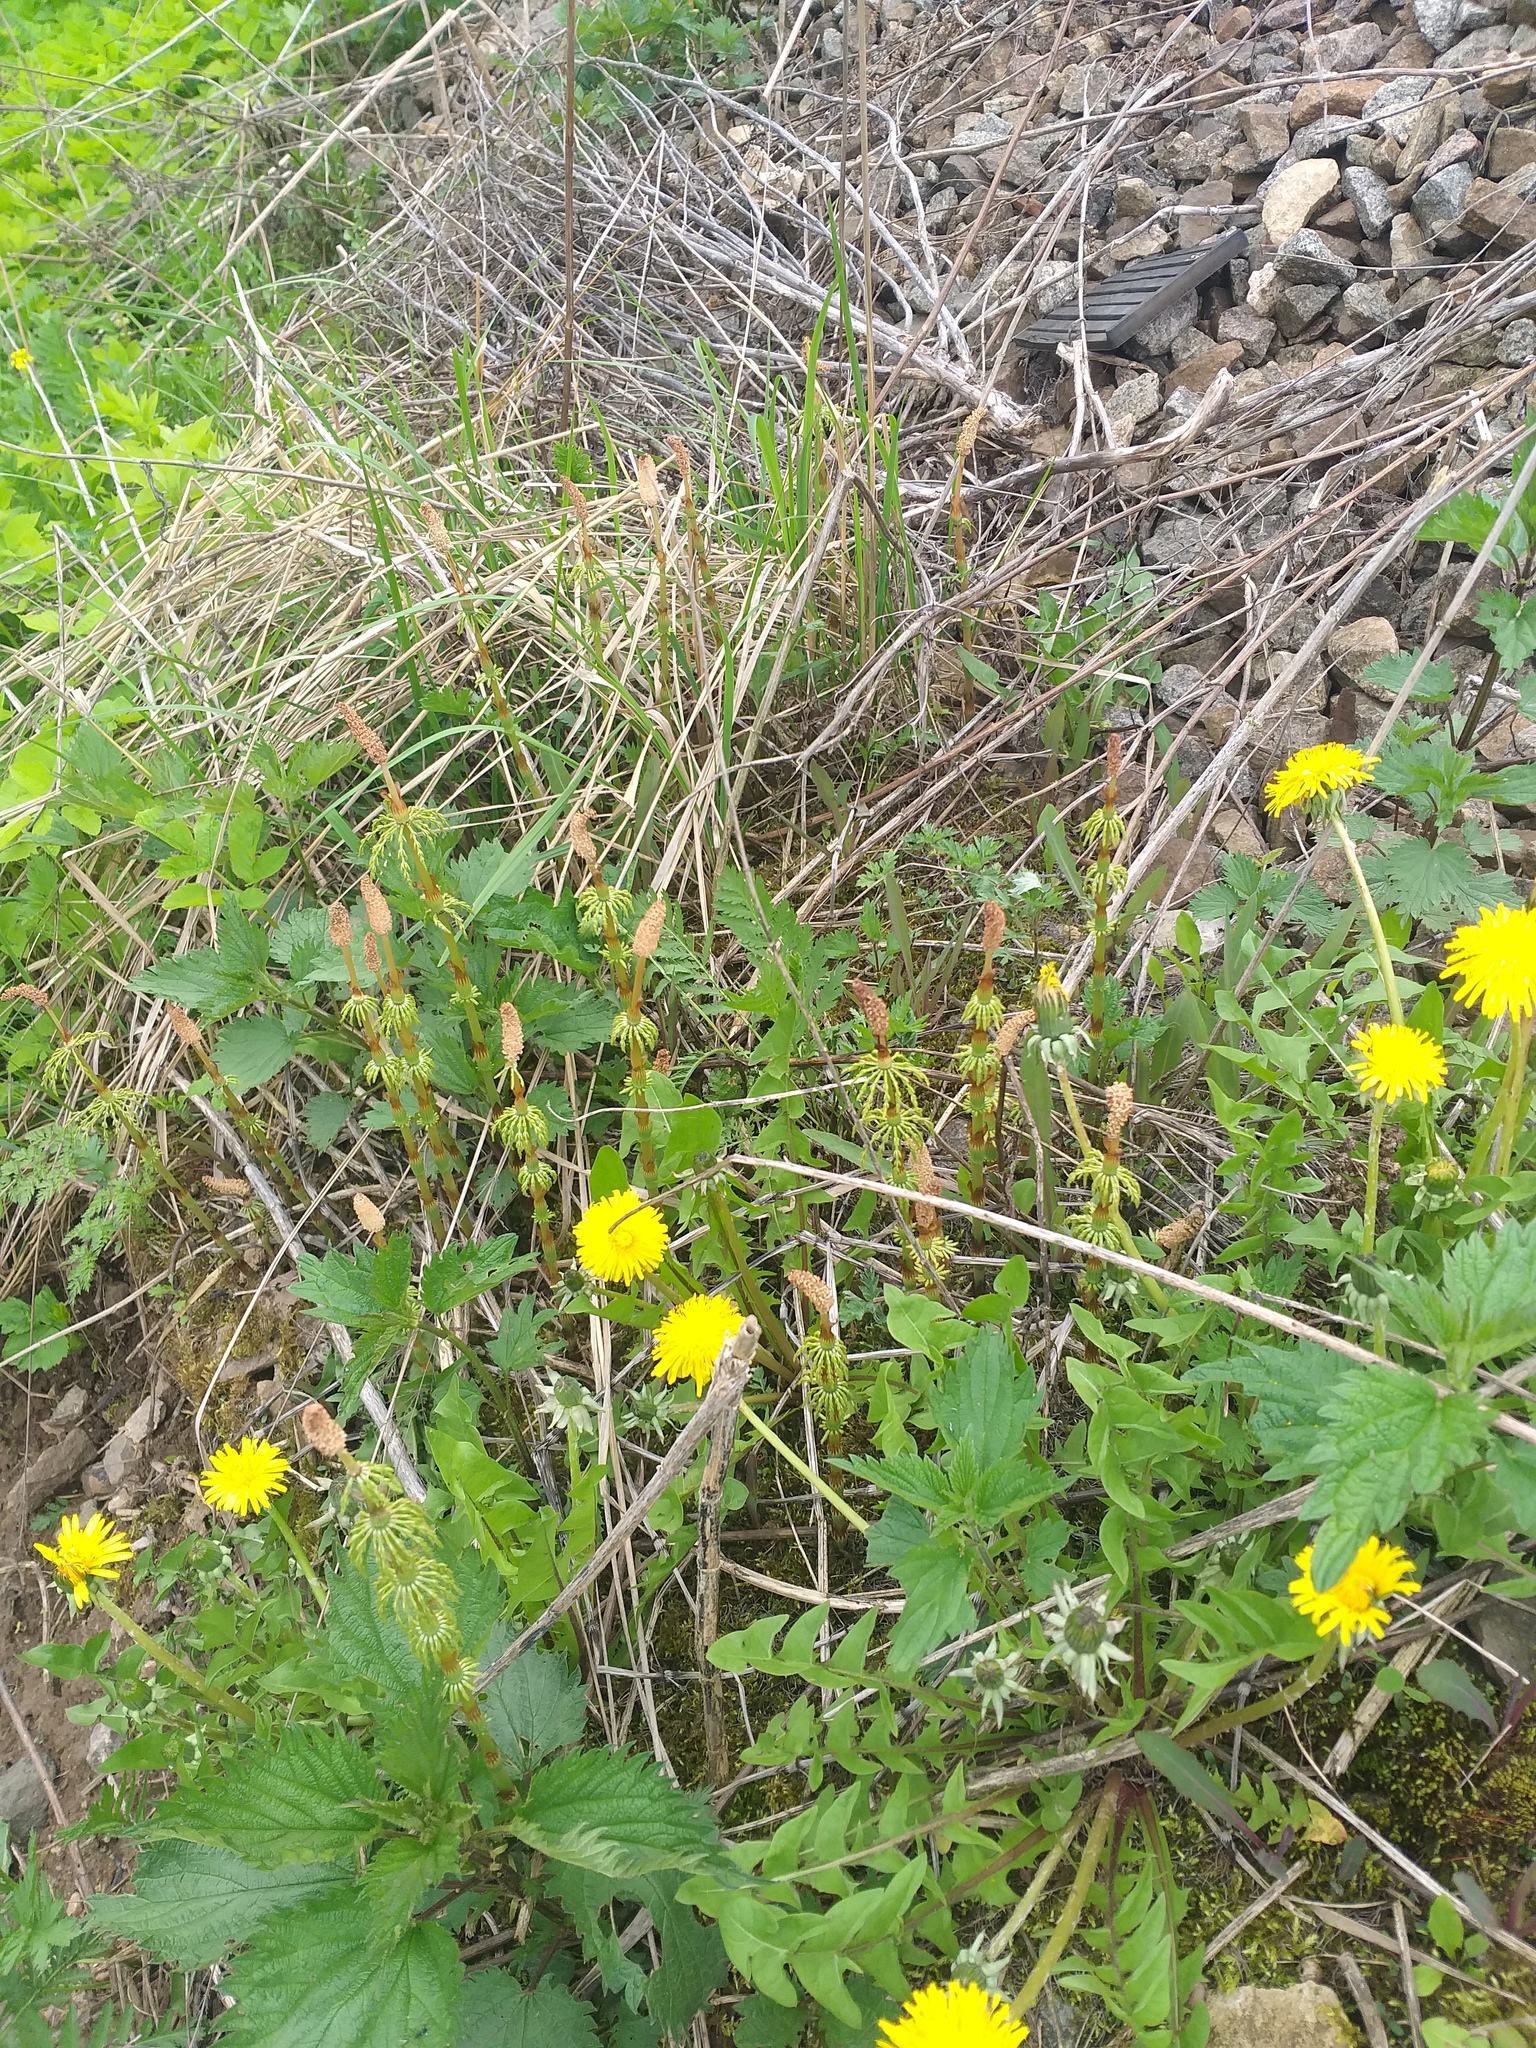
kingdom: Plantae
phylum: Tracheophyta
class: Polypodiopsida
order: Equisetales
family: Equisetaceae
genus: Equisetum
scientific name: Equisetum sylvaticum
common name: Wood horsetail
